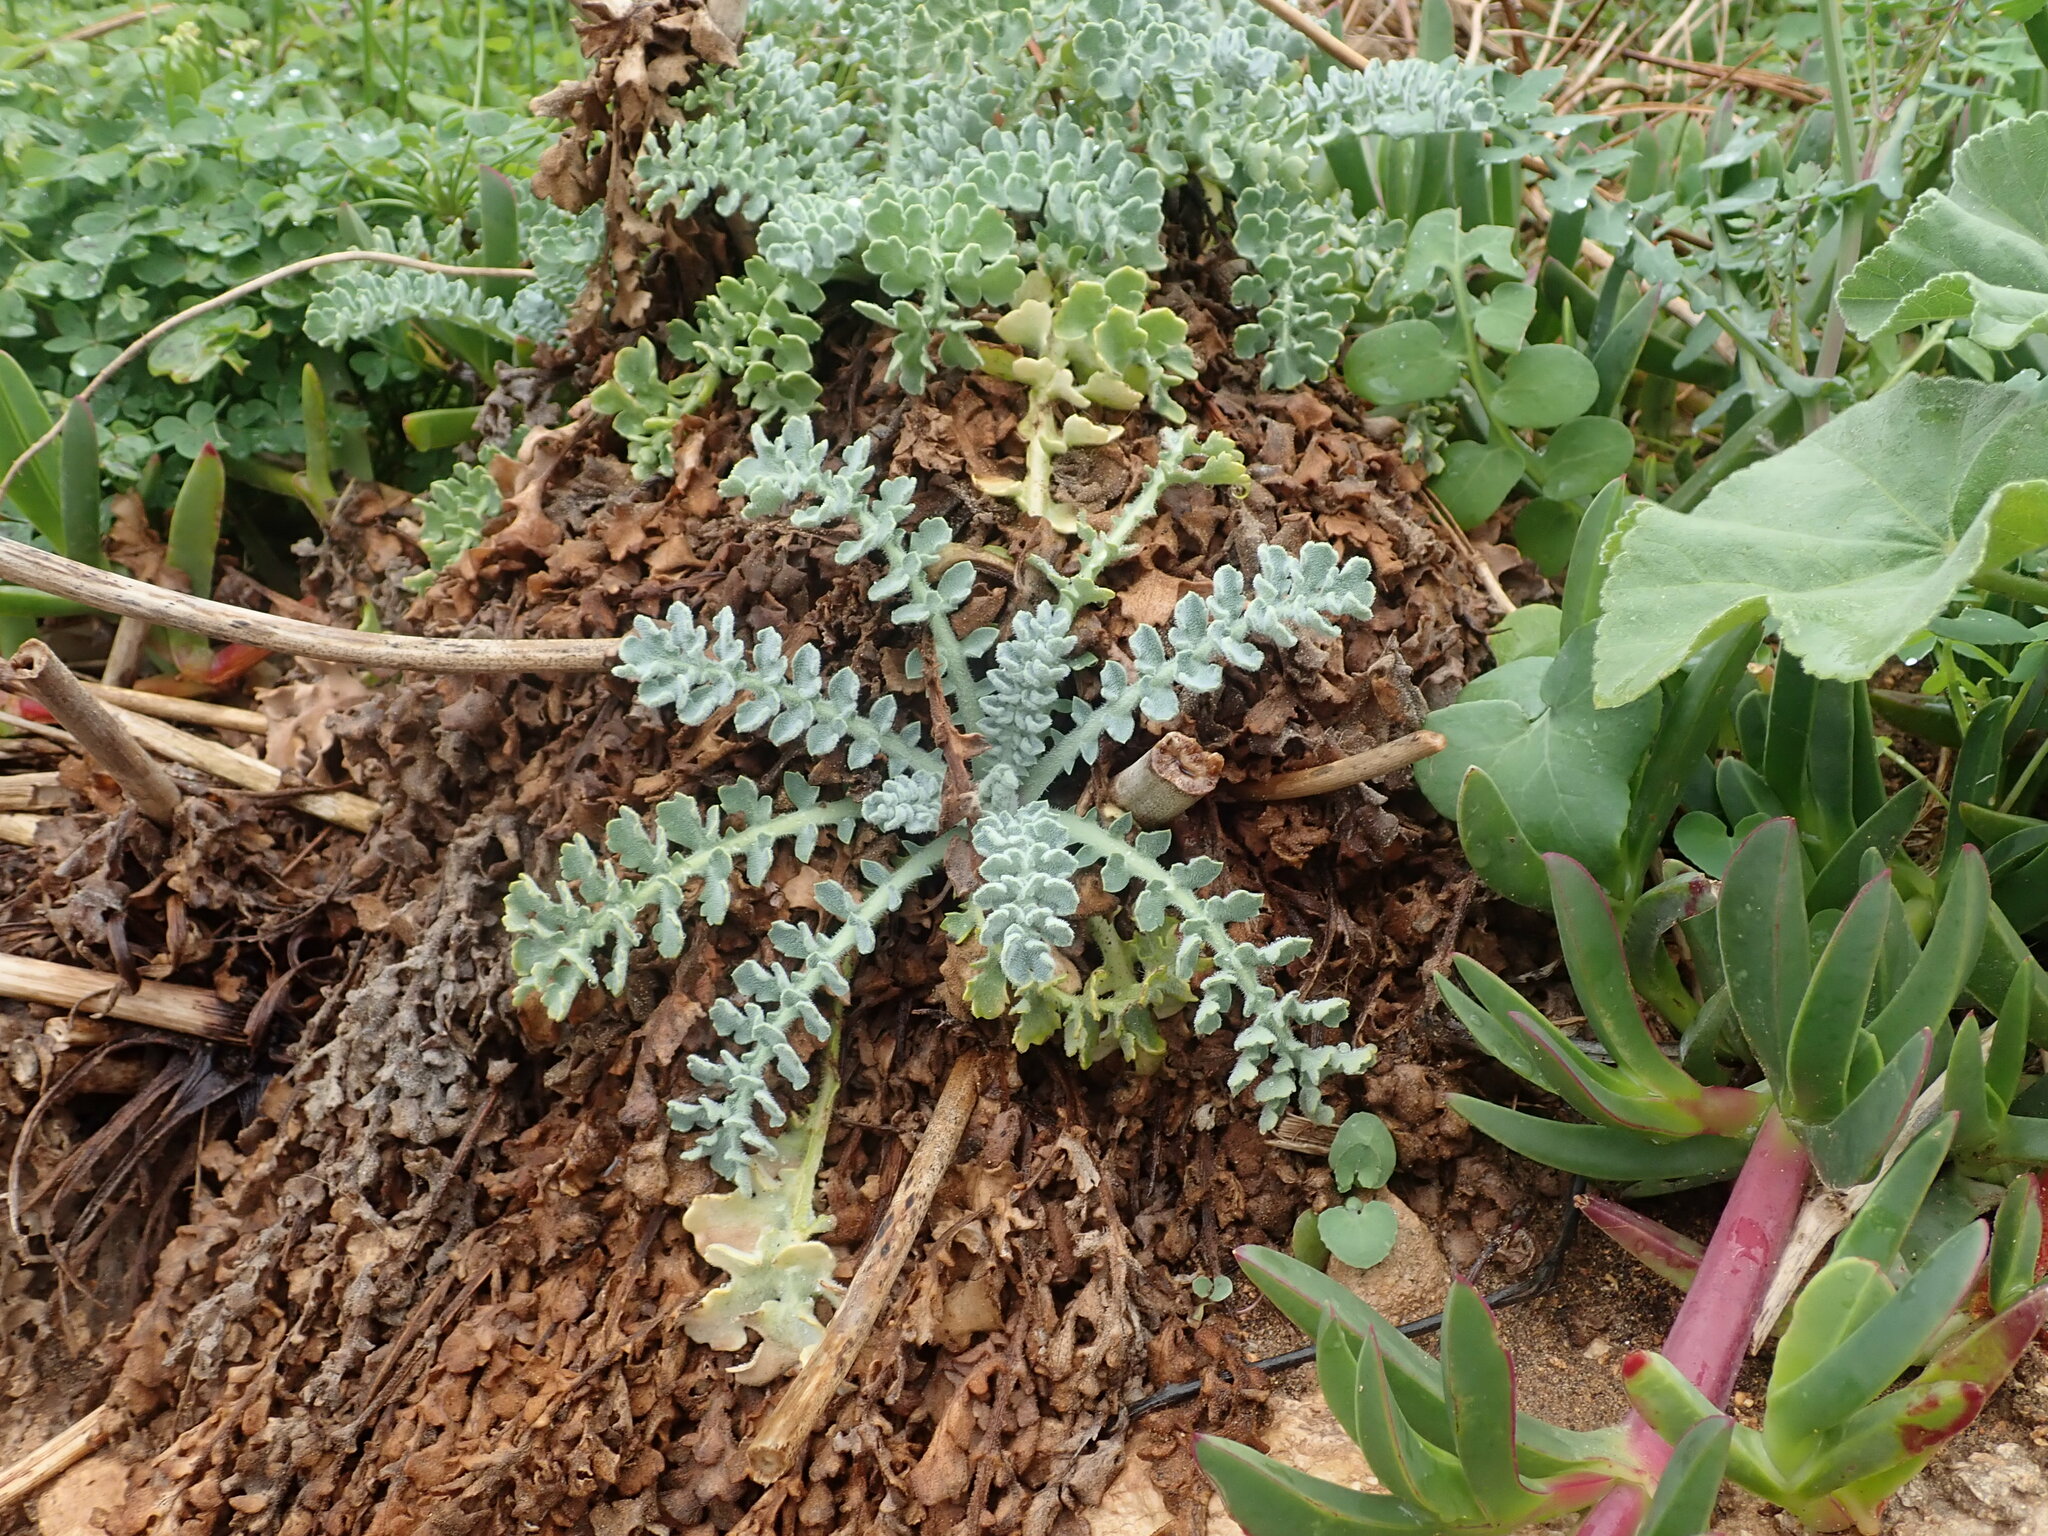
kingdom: Plantae
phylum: Tracheophyta
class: Magnoliopsida
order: Ranunculales
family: Papaveraceae
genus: Glaucium
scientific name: Glaucium flavum
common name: Yellow horned-poppy
